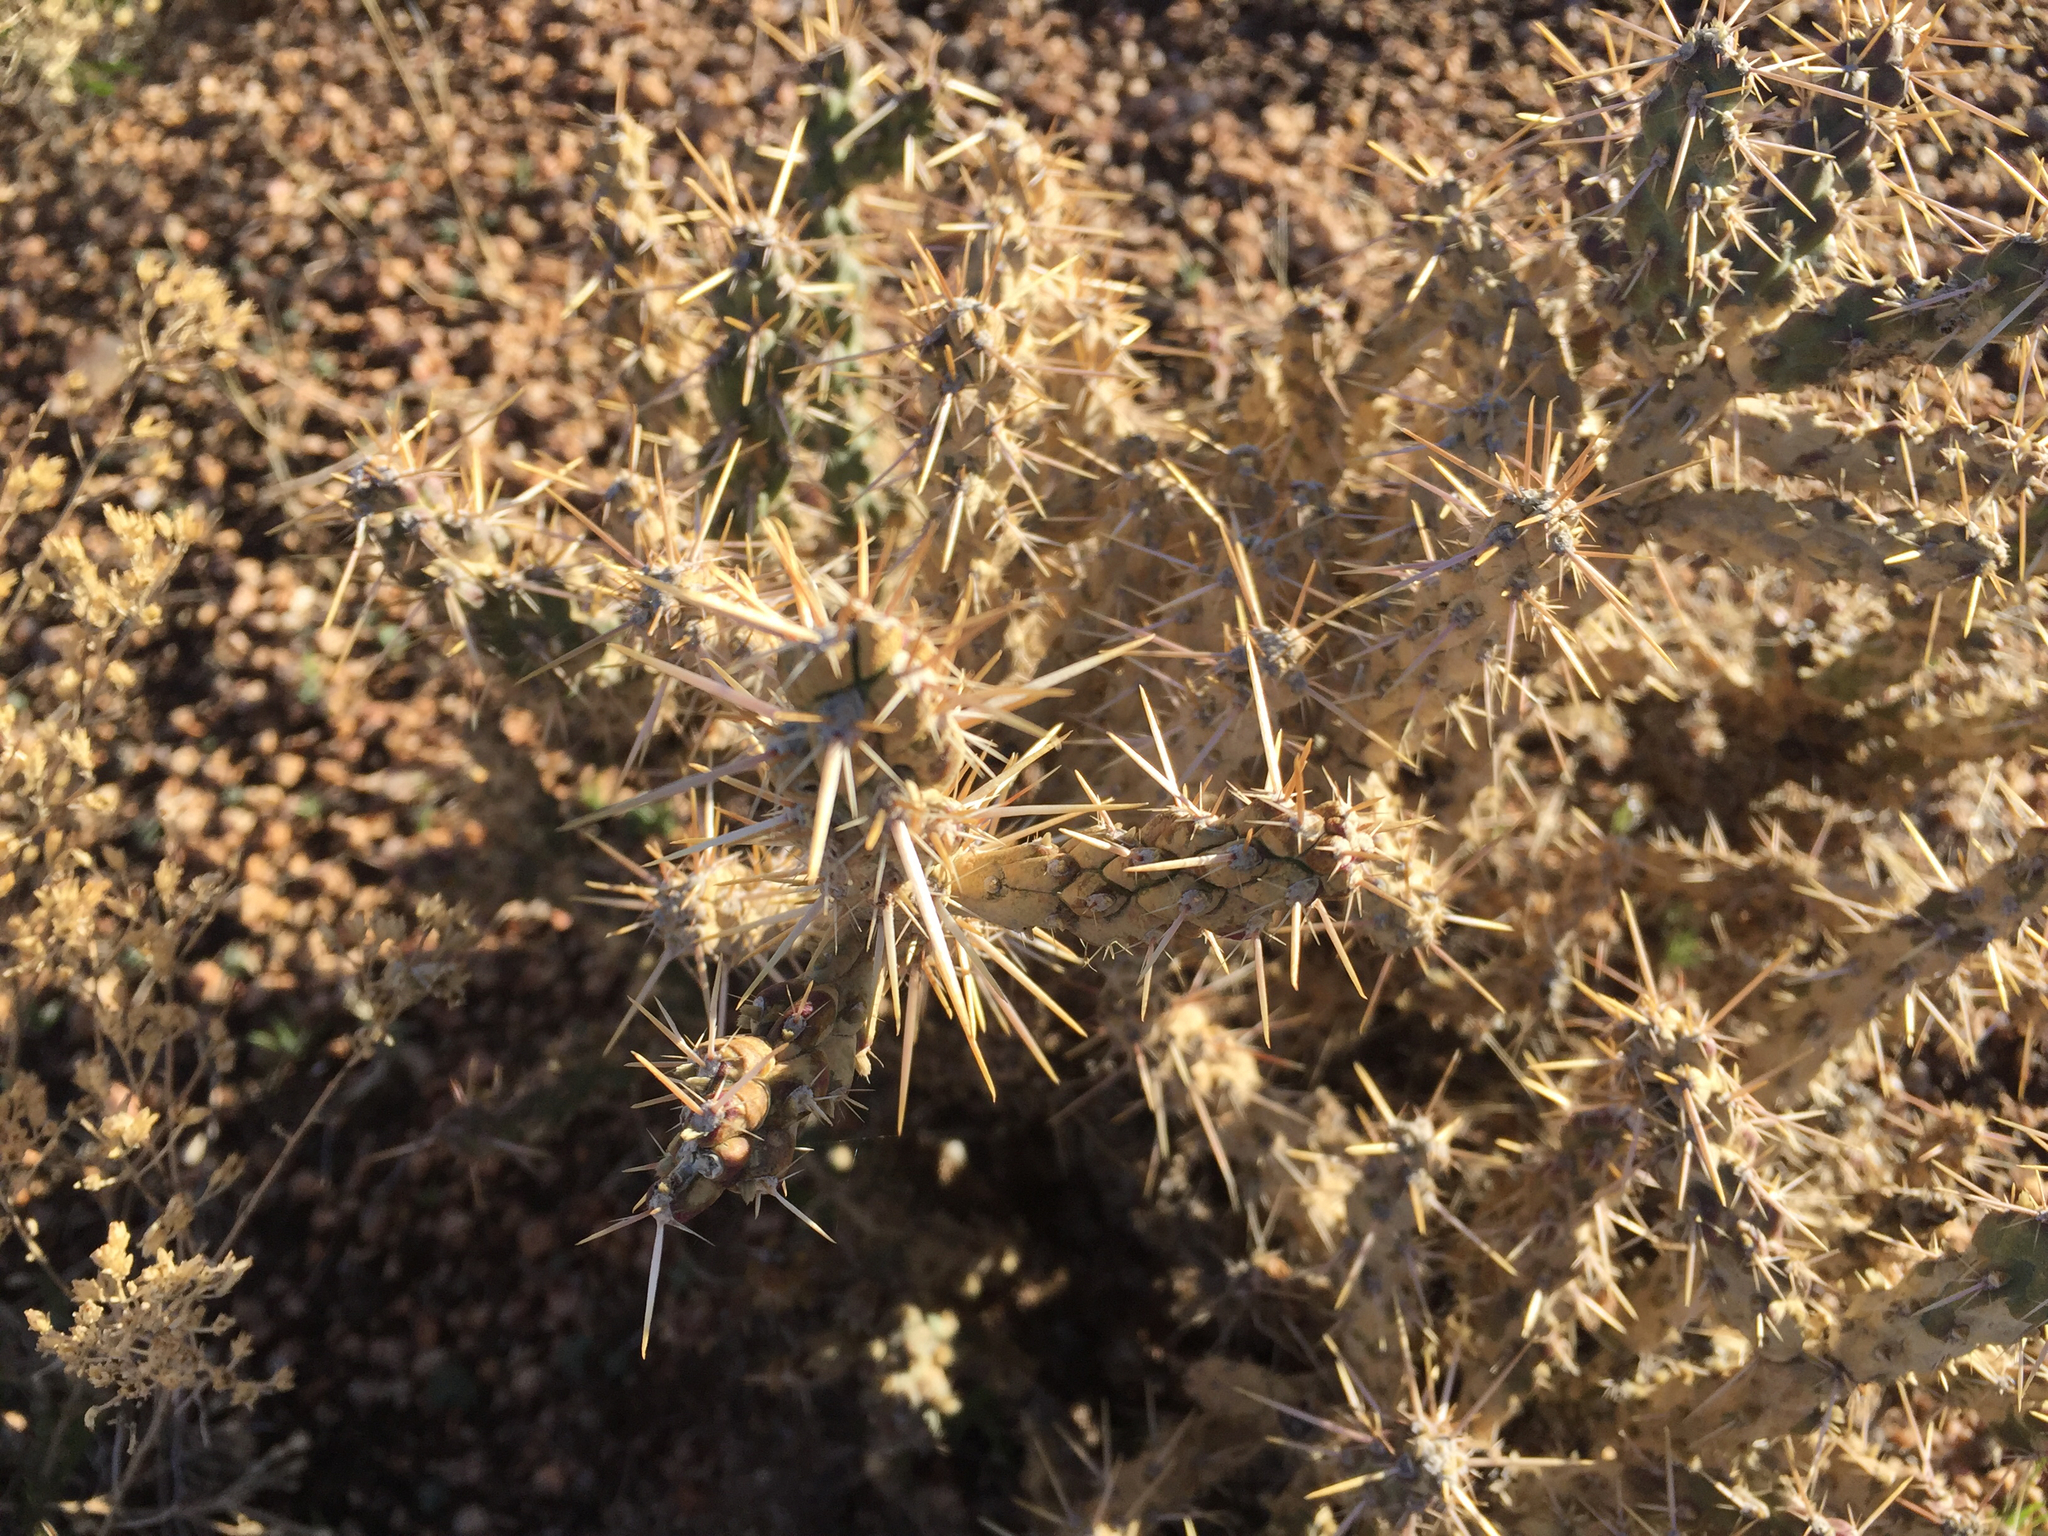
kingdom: Plantae
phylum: Tracheophyta
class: Magnoliopsida
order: Caryophyllales
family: Cactaceae
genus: Cylindropuntia
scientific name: Cylindropuntia whipplei
